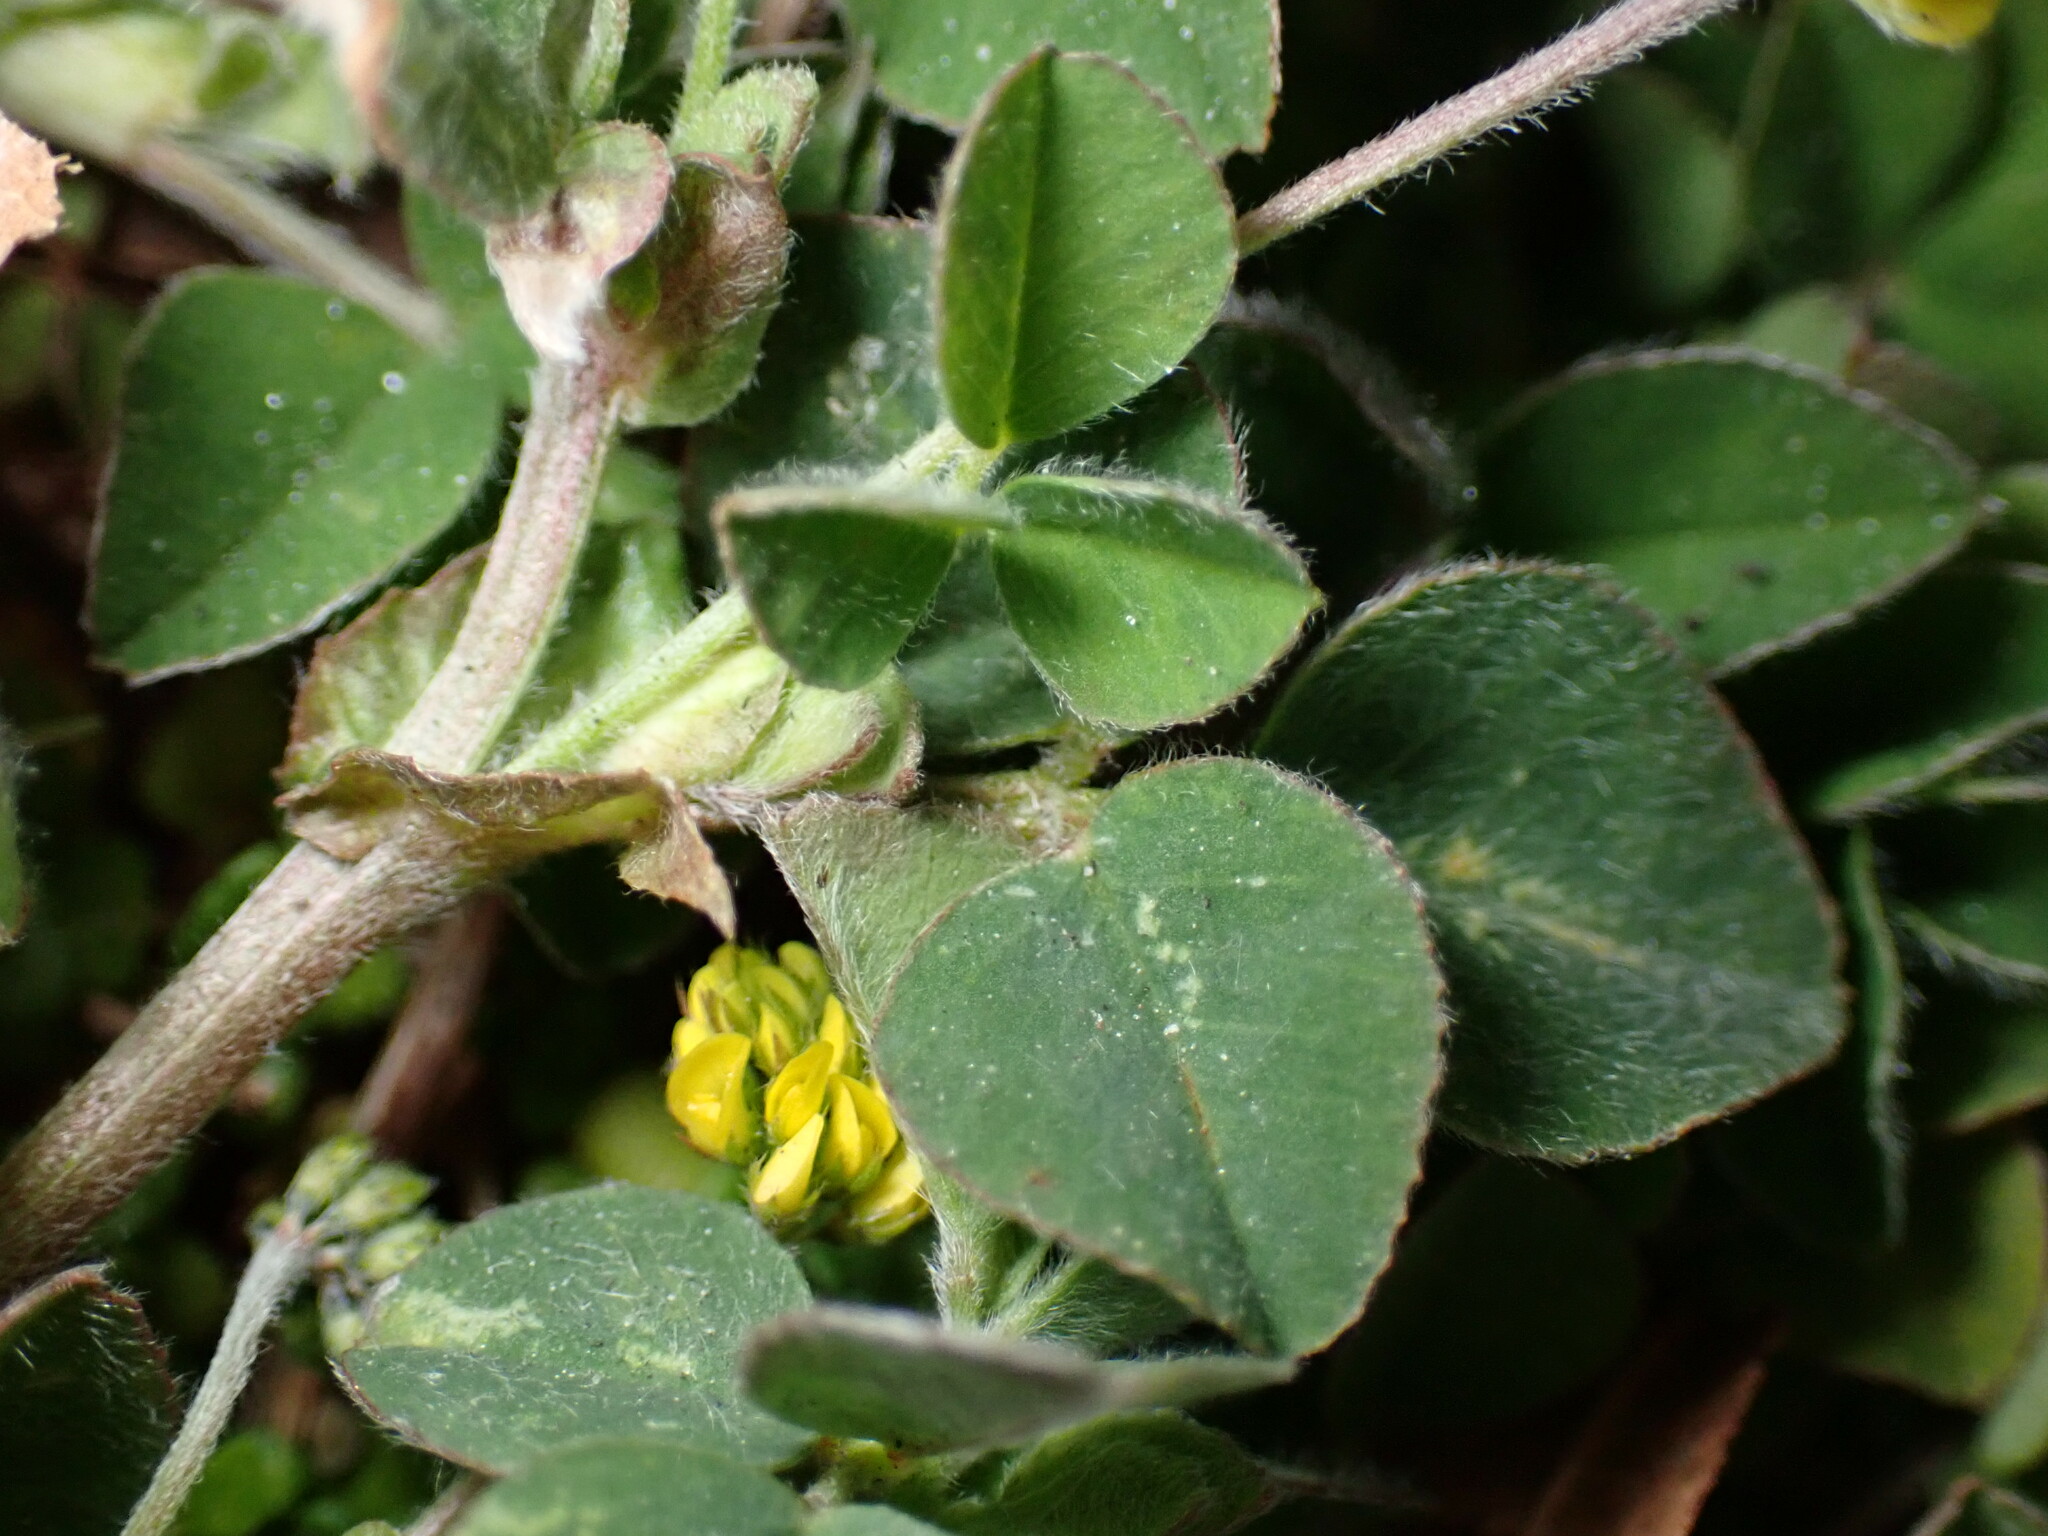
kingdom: Plantae
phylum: Tracheophyta
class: Magnoliopsida
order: Fabales
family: Fabaceae
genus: Medicago
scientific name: Medicago lupulina
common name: Black medick
